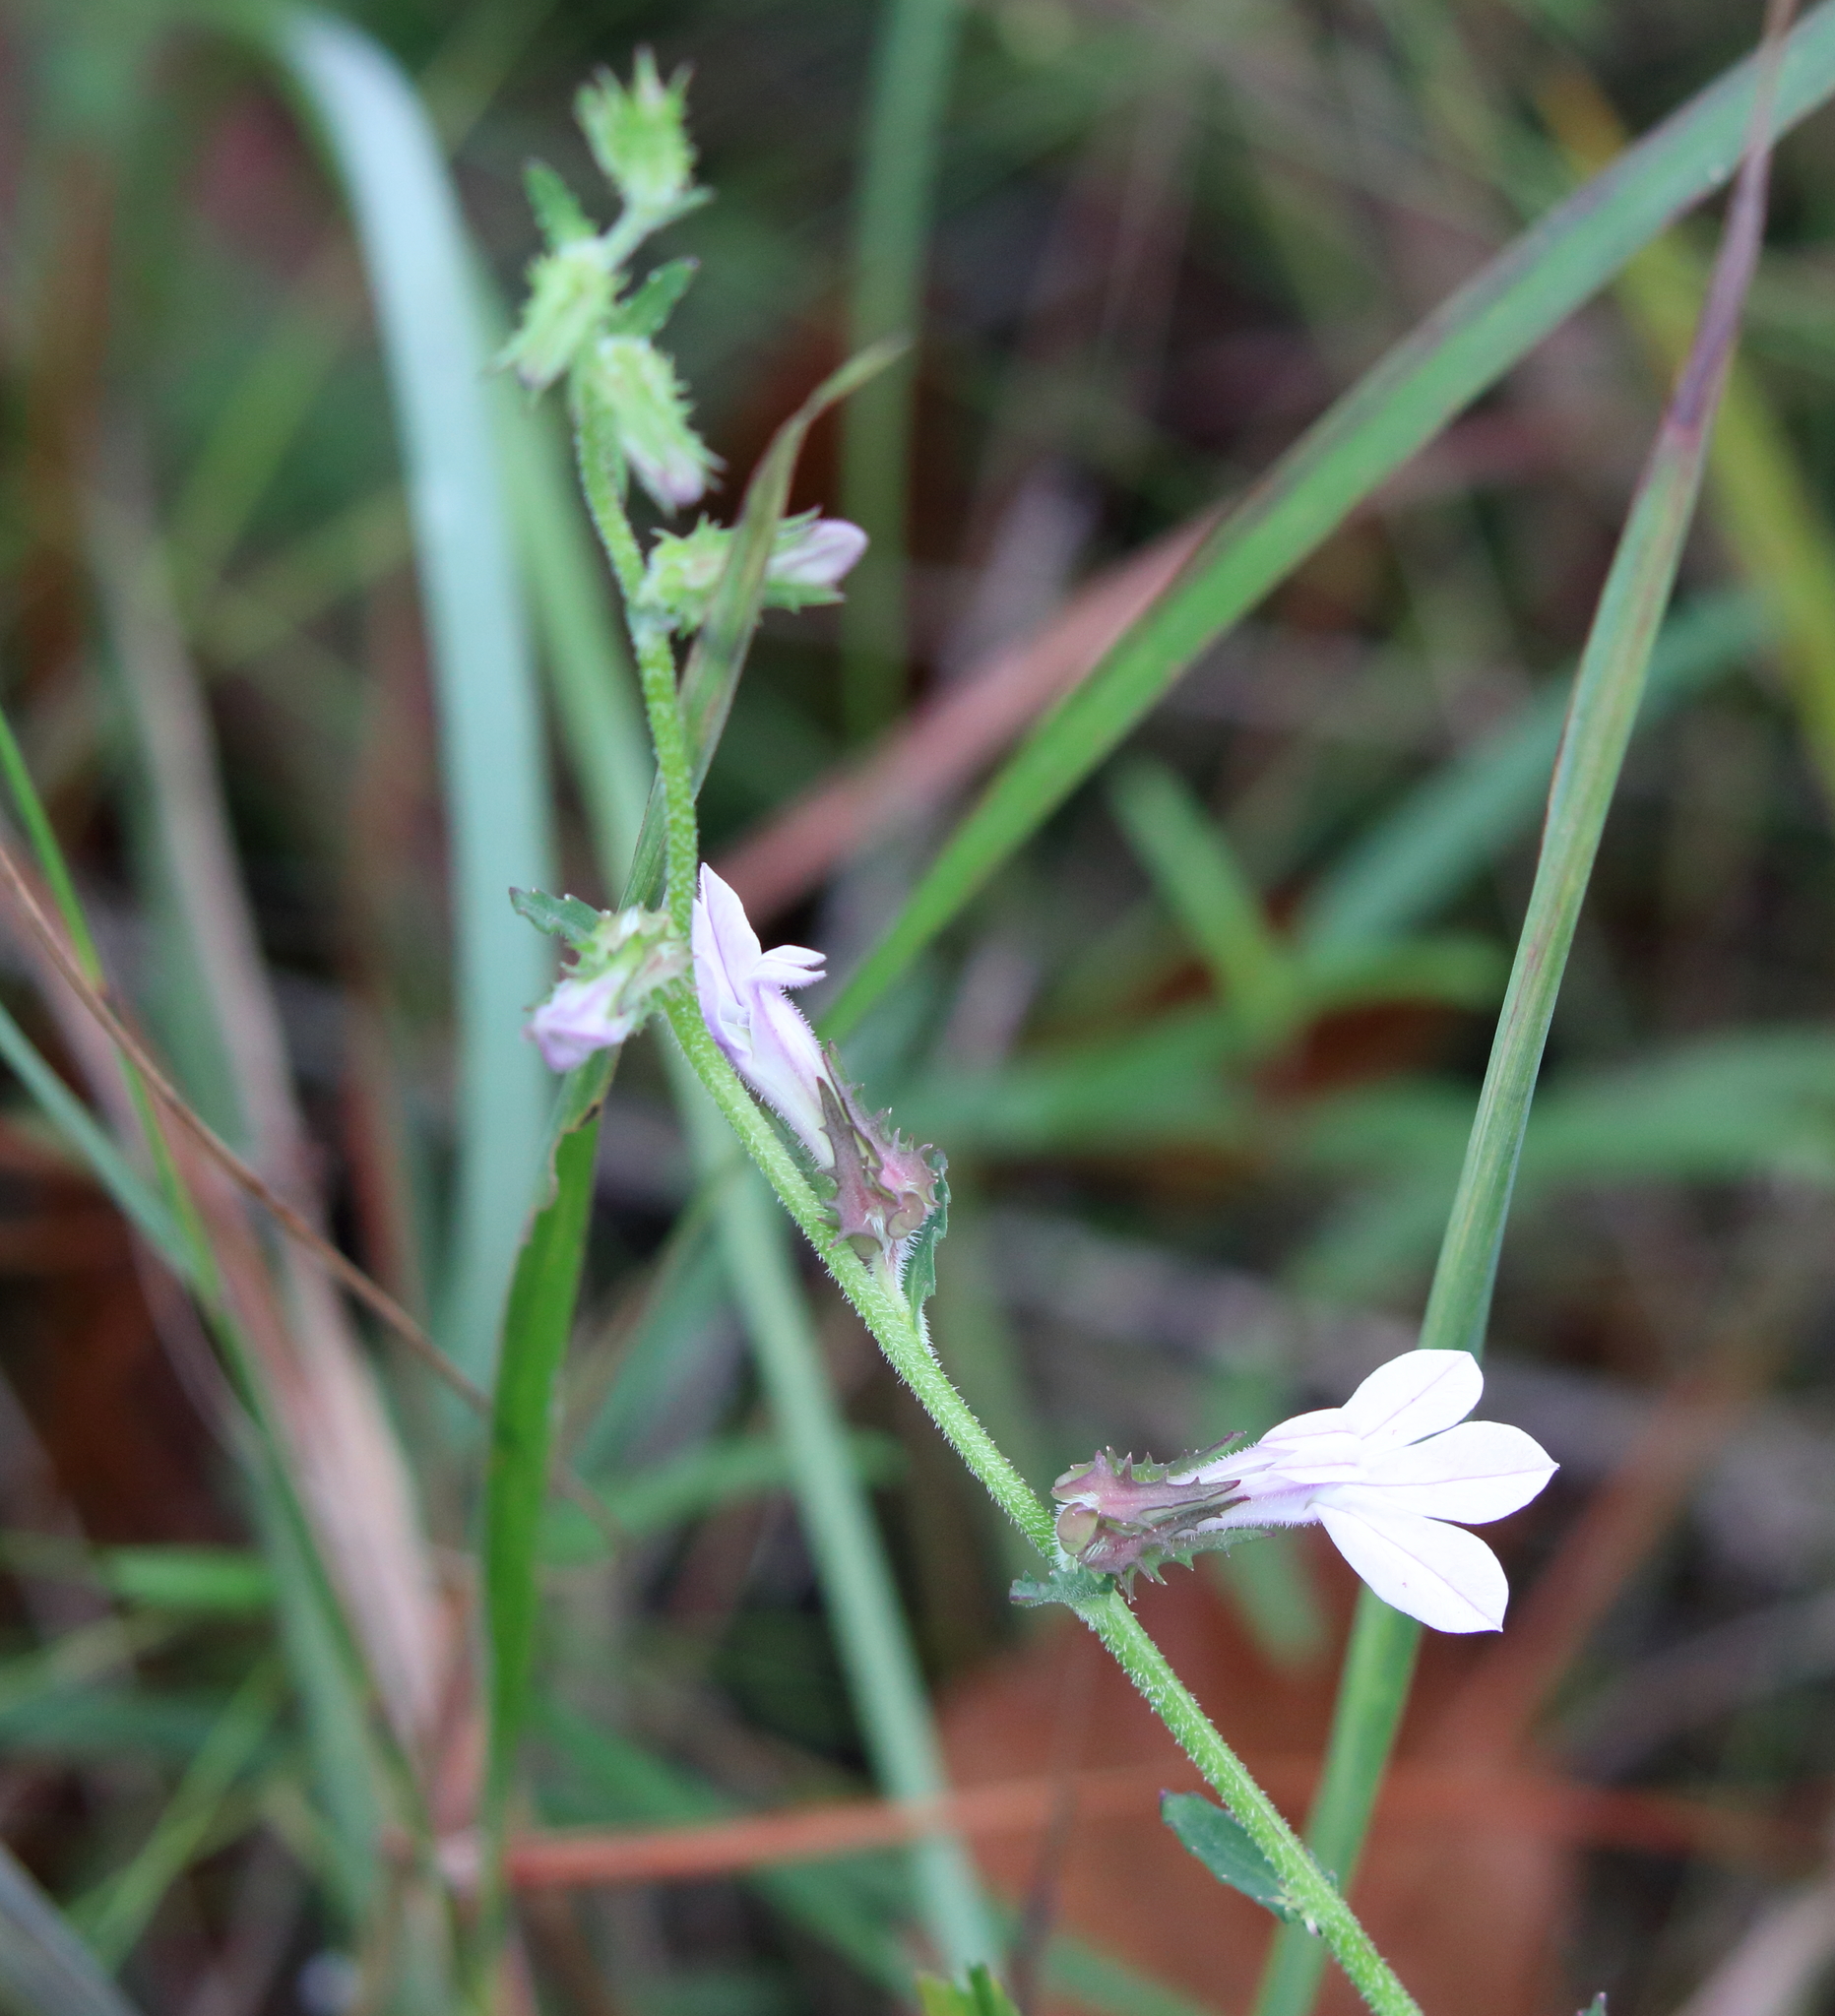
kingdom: Plantae
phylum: Tracheophyta
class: Magnoliopsida
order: Asterales
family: Campanulaceae
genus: Lobelia
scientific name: Lobelia brevifolia
